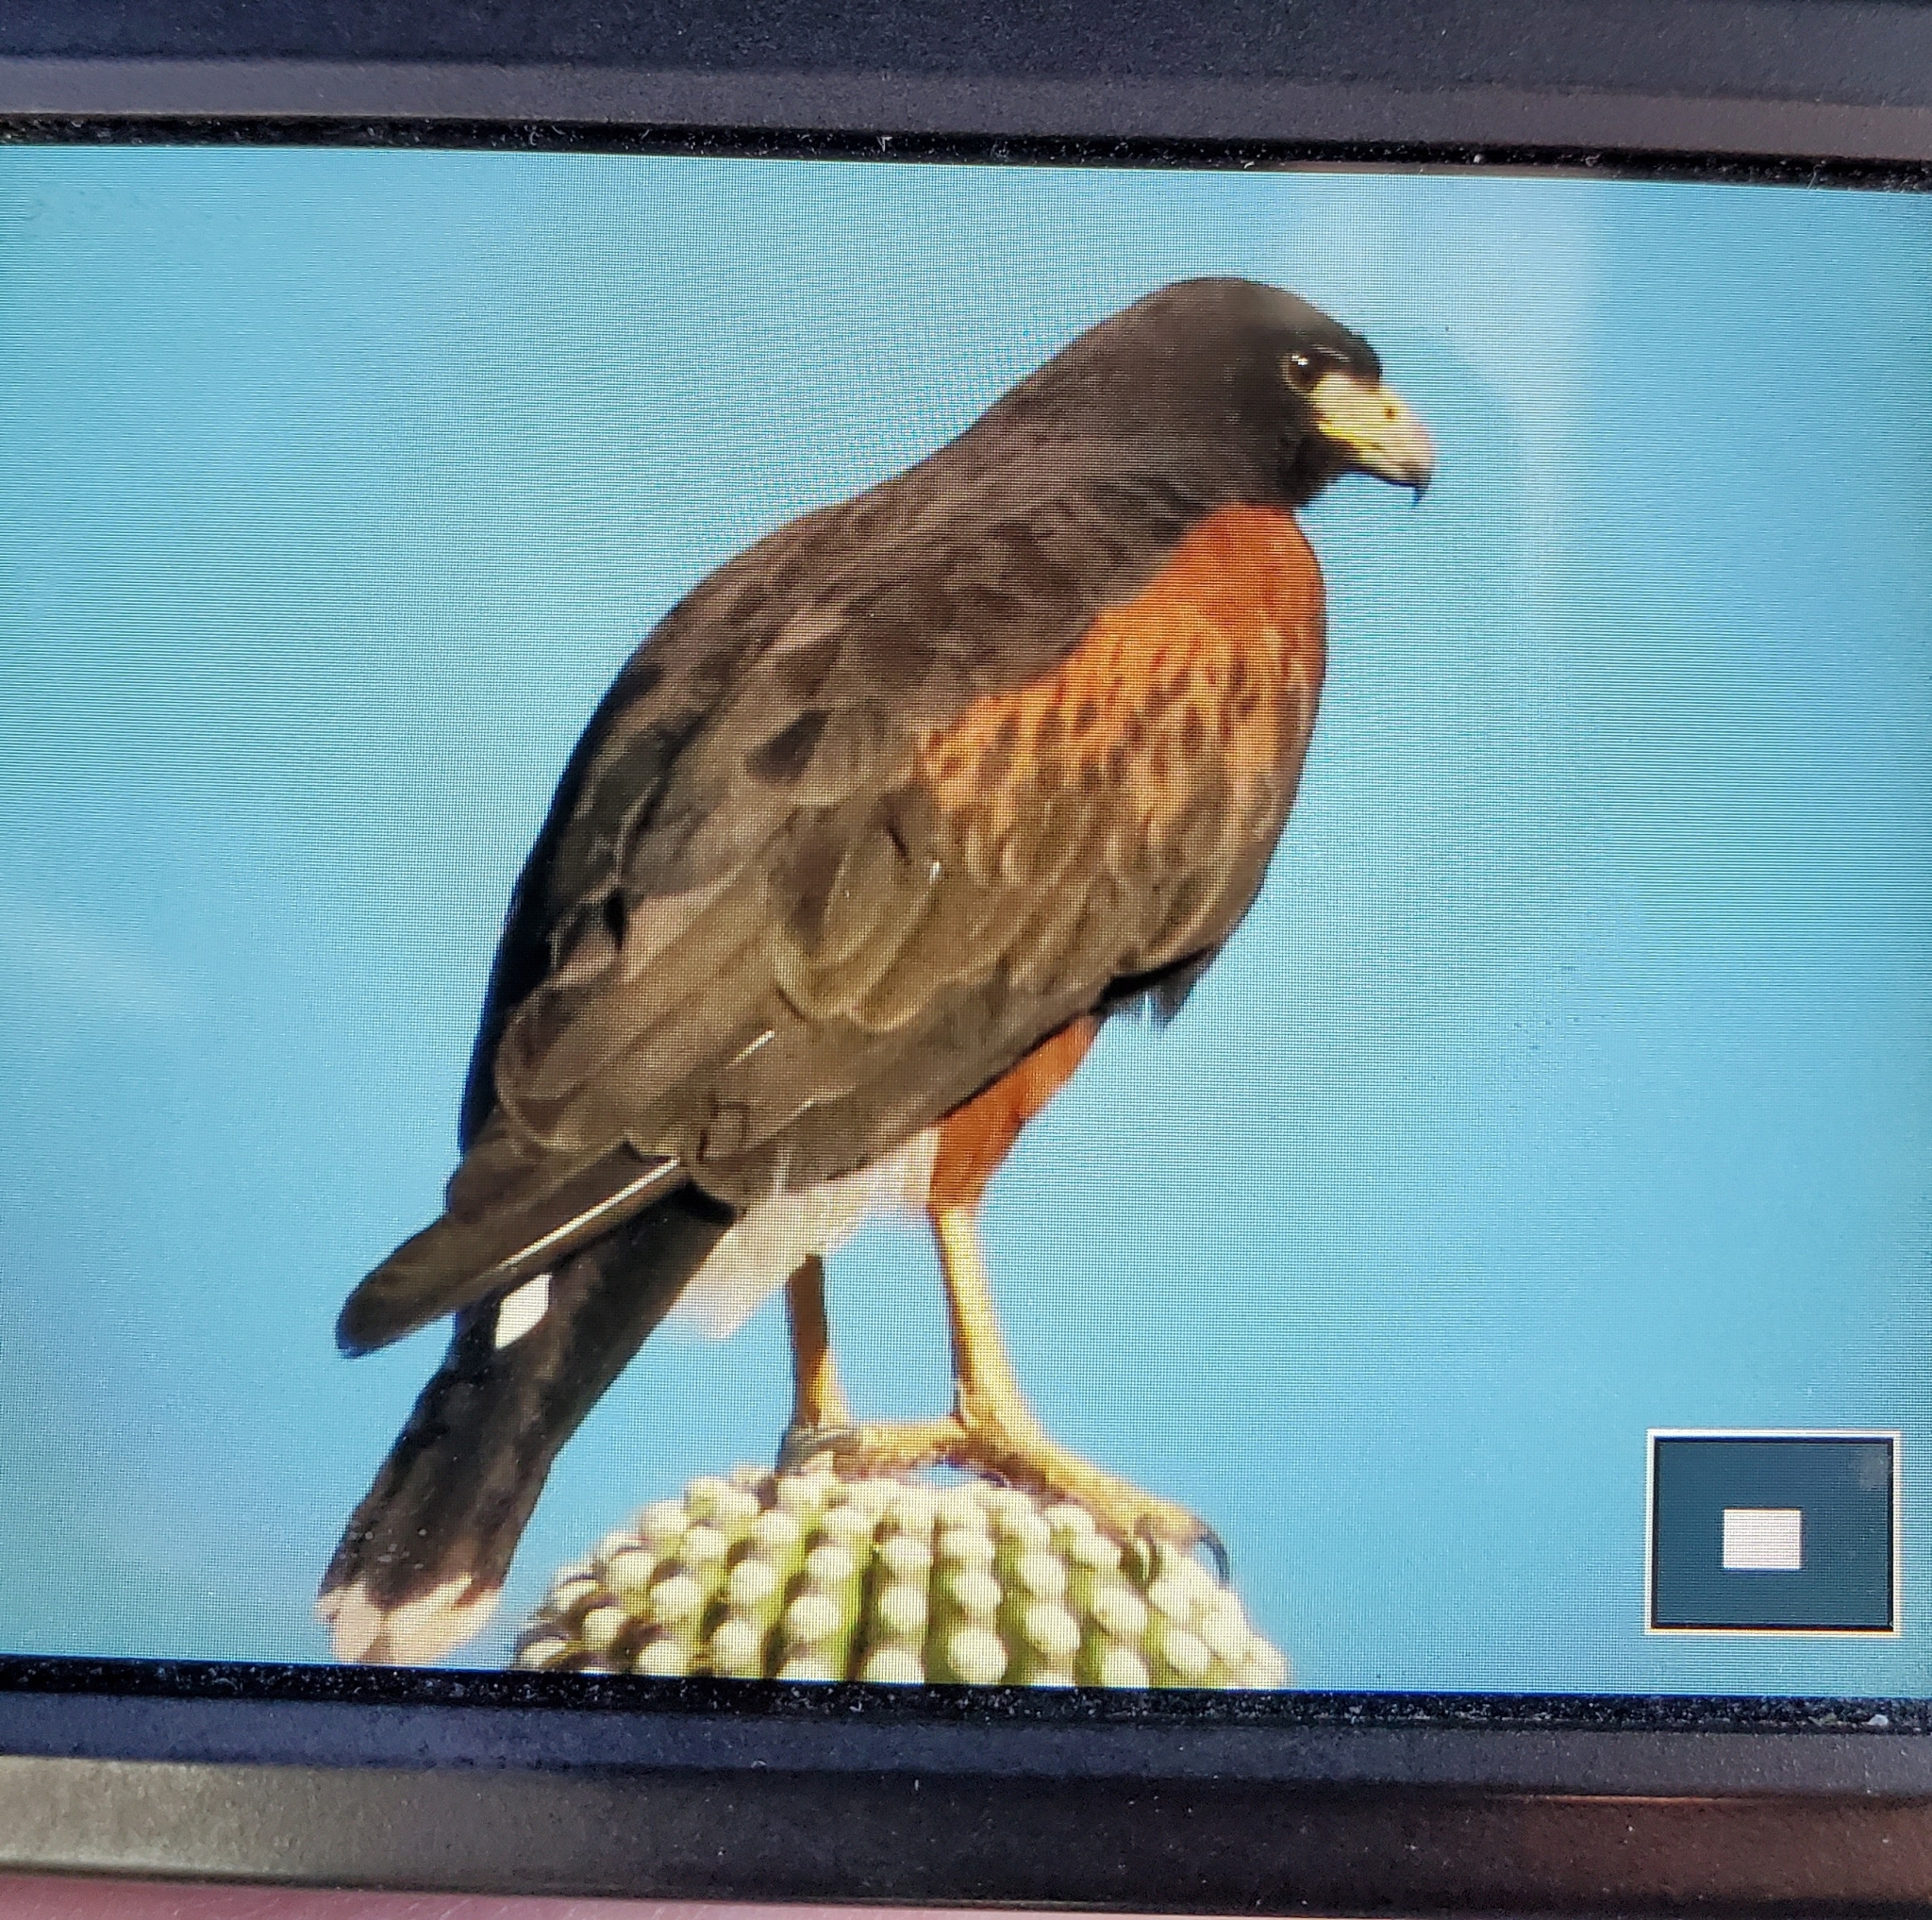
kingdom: Animalia
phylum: Chordata
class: Aves
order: Accipitriformes
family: Accipitridae
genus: Parabuteo
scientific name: Parabuteo unicinctus
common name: Harris's hawk
